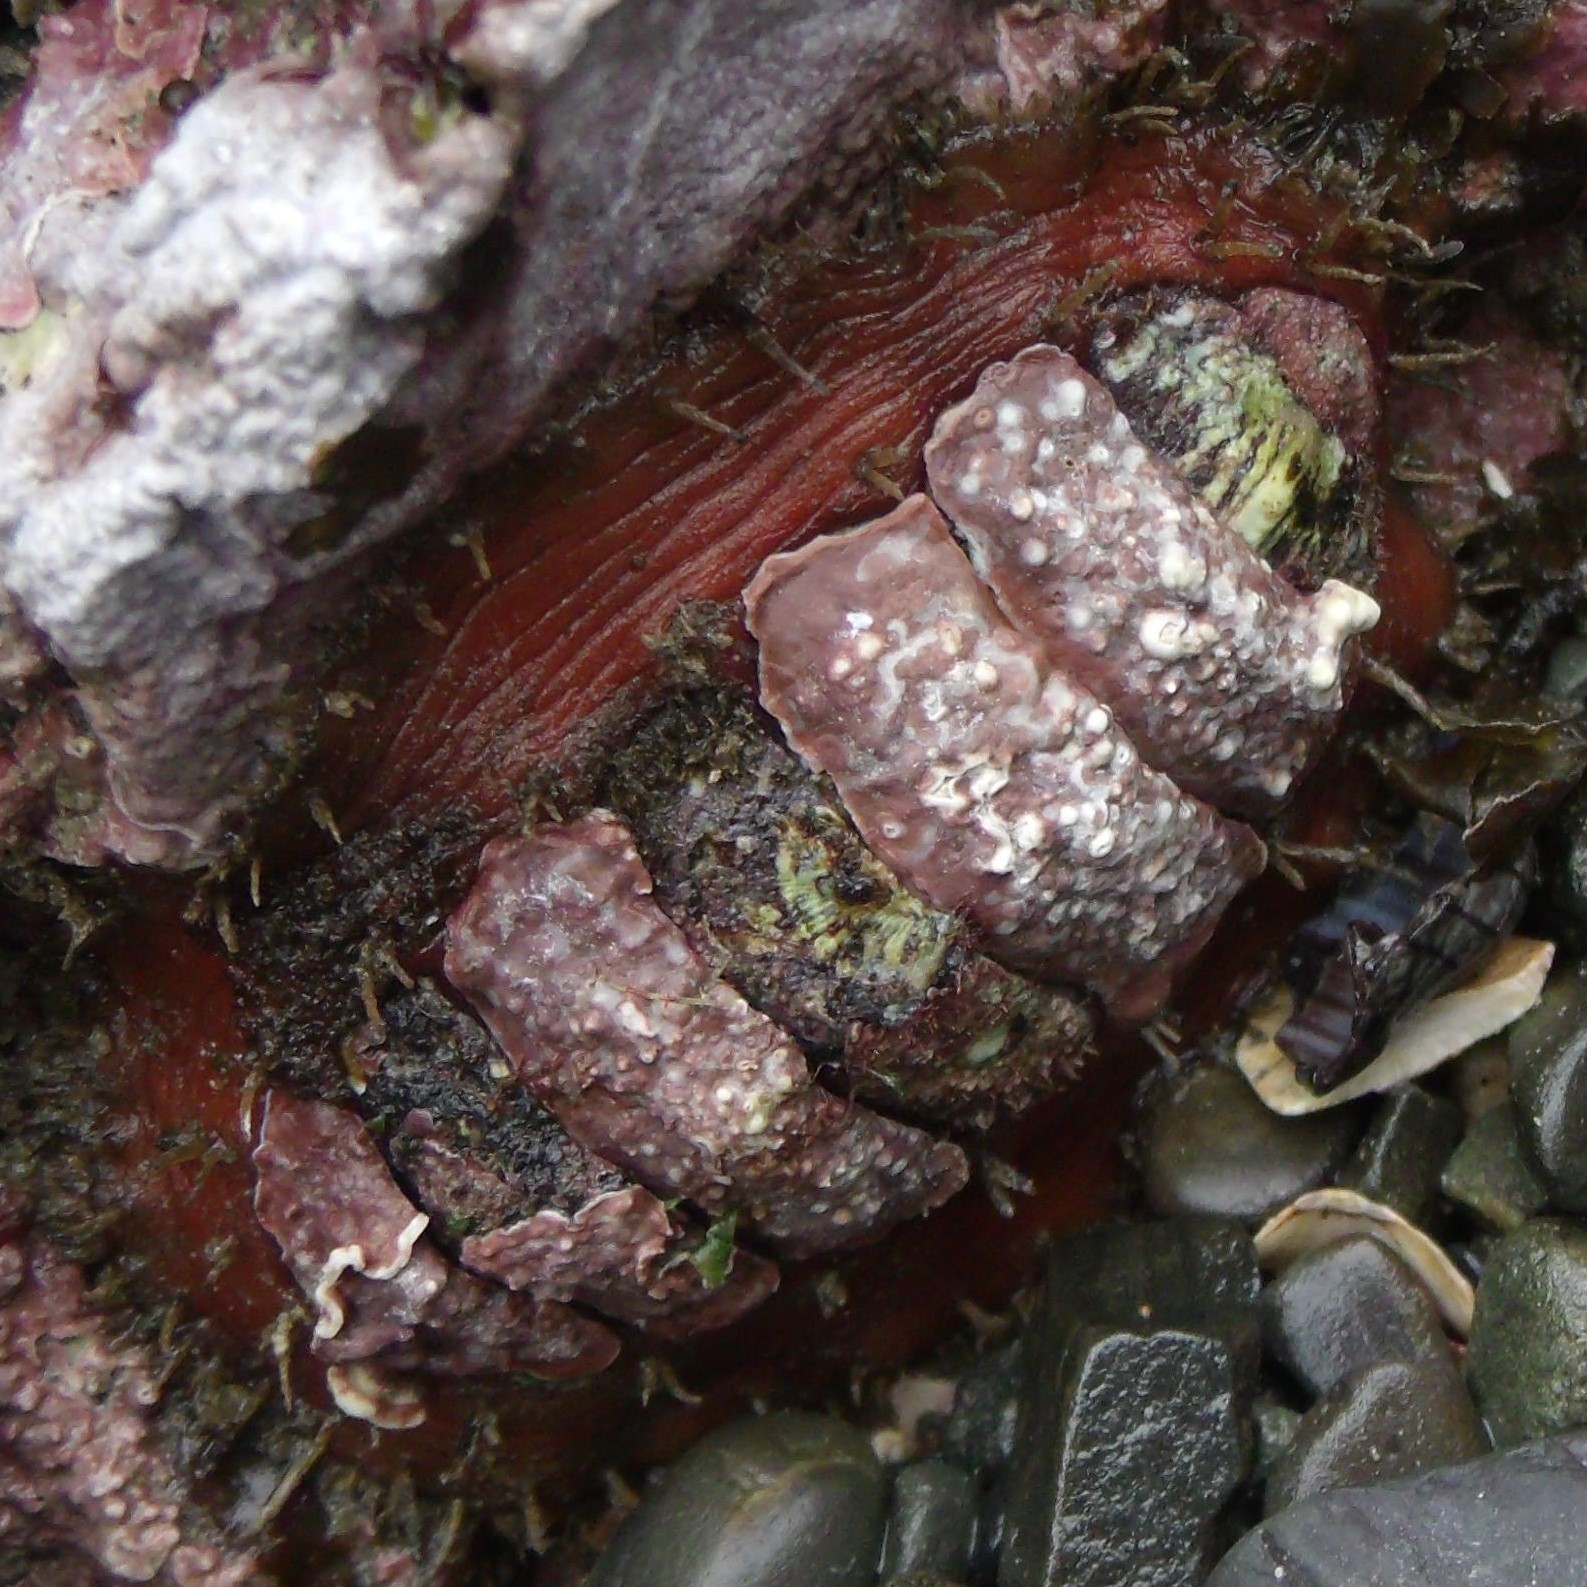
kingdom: Animalia
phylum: Mollusca
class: Polyplacophora
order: Chitonida
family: Mopaliidae
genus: Plaxiphora
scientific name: Plaxiphora biramosa
